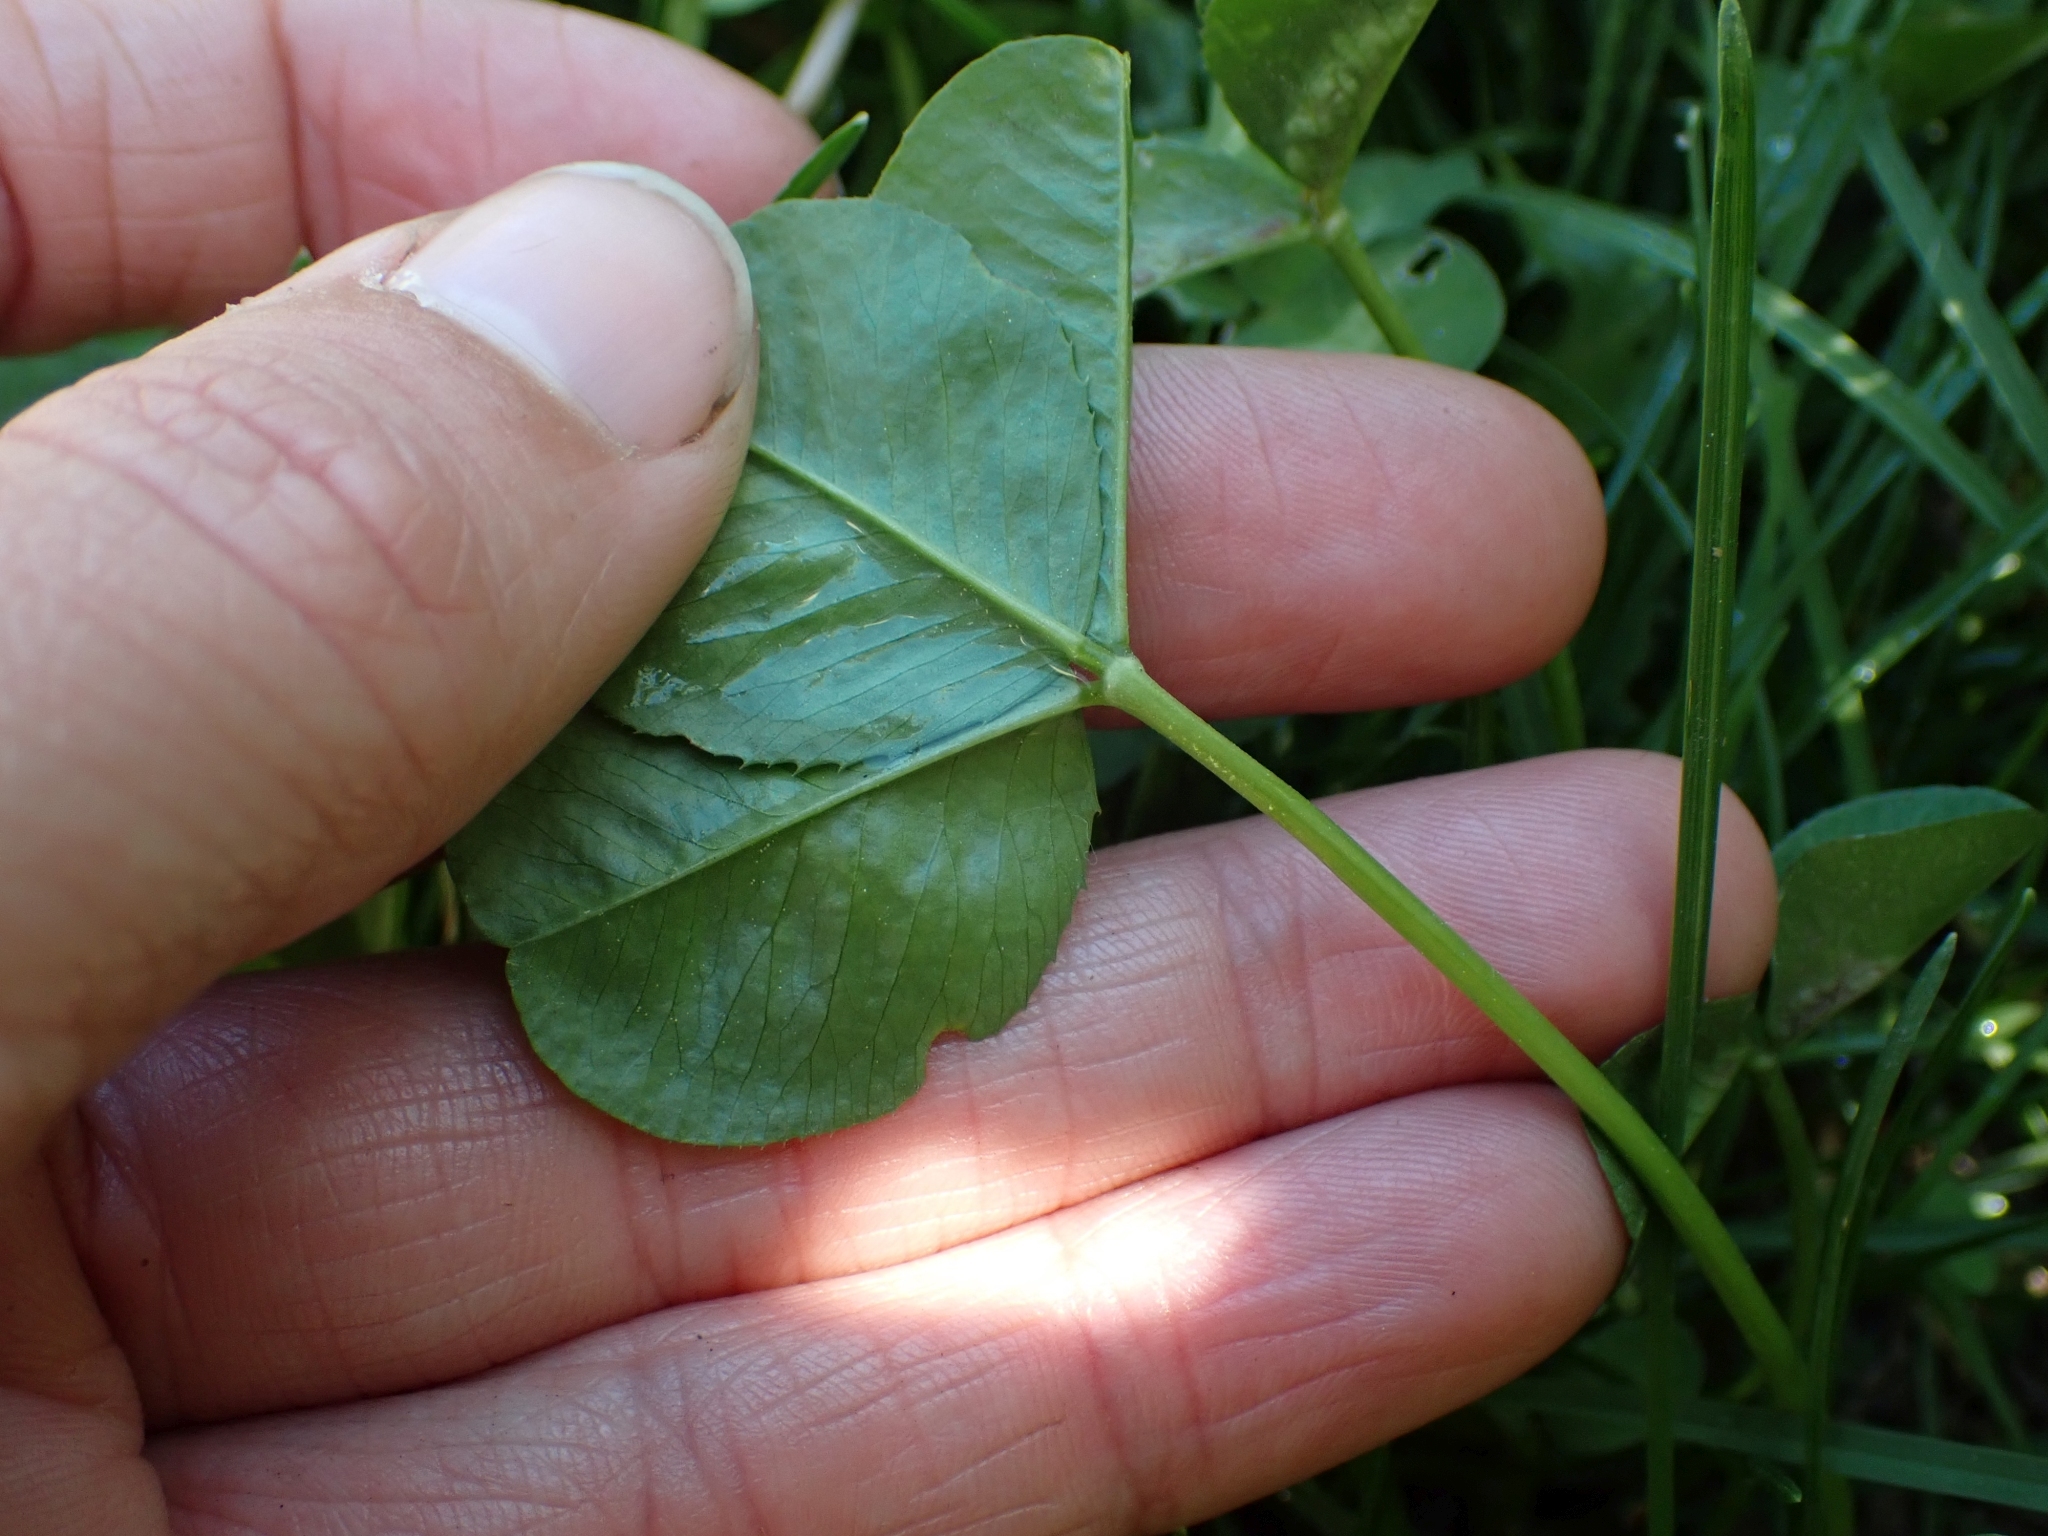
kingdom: Plantae
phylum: Tracheophyta
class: Magnoliopsida
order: Fabales
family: Fabaceae
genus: Trifolium
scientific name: Trifolium repens
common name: White clover
